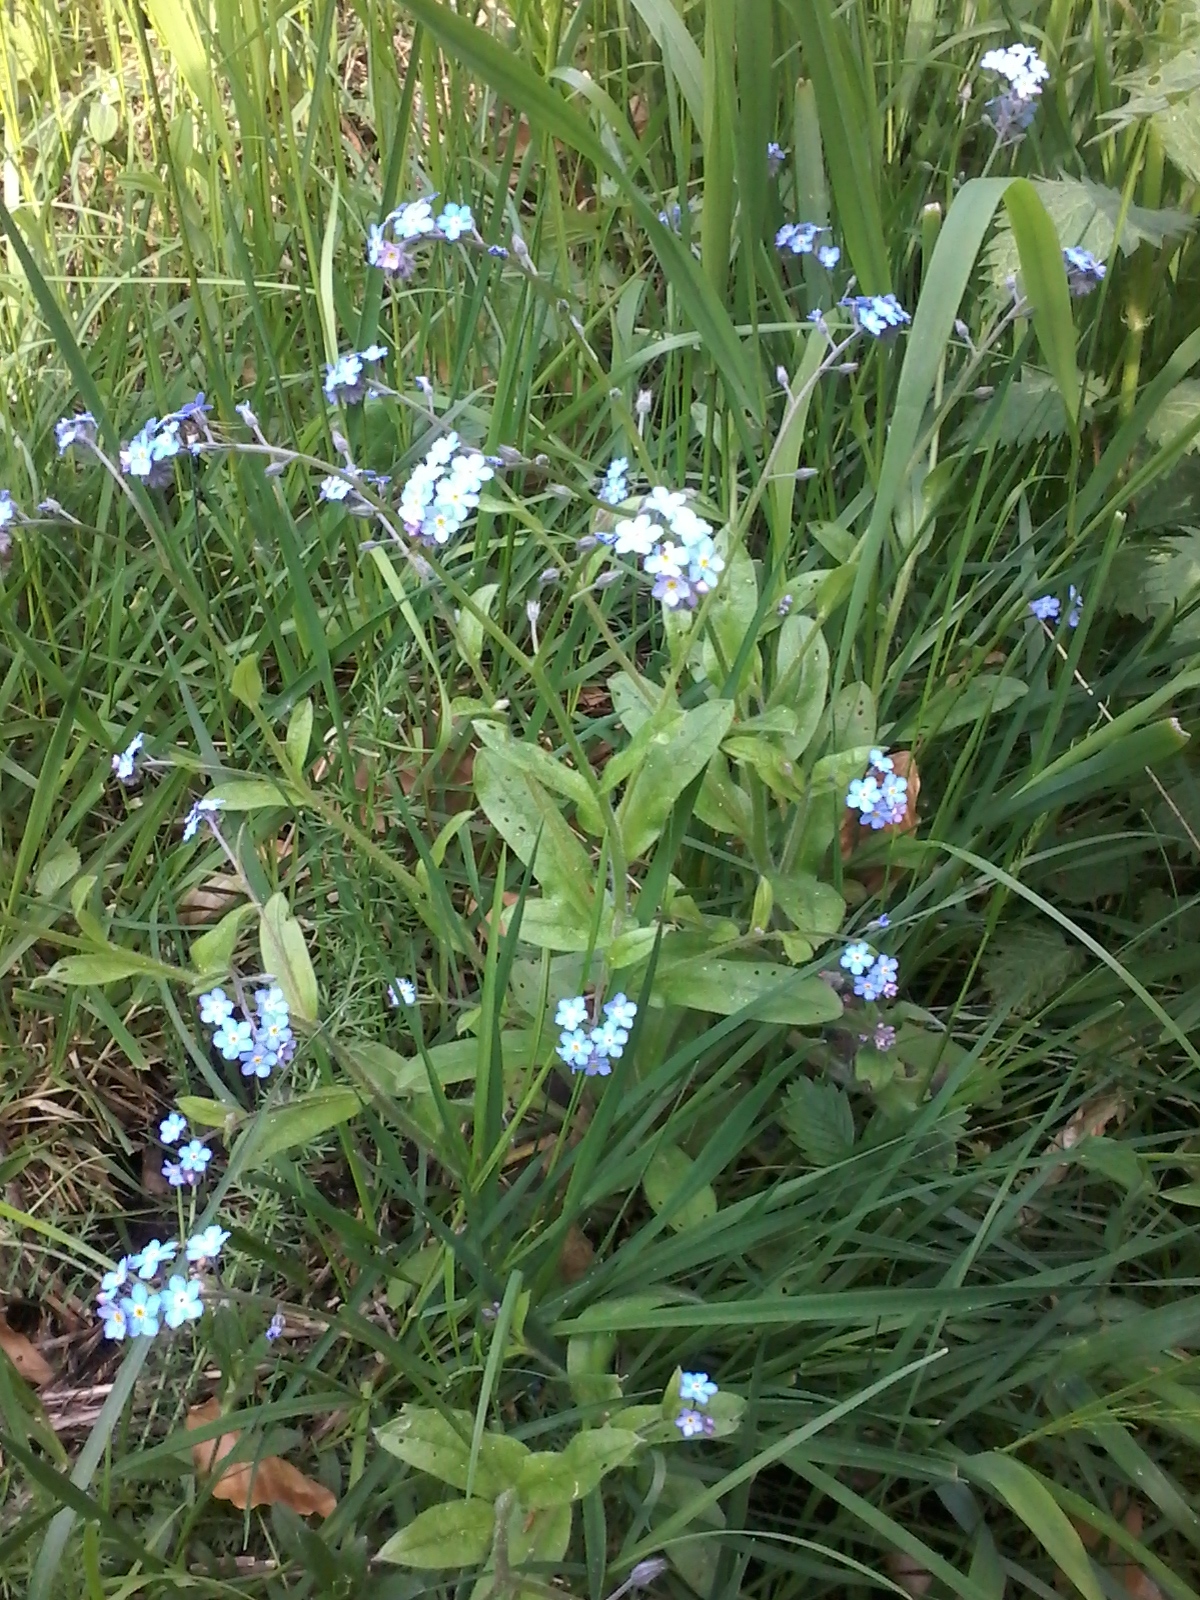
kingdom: Plantae
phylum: Tracheophyta
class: Magnoliopsida
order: Boraginales
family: Boraginaceae
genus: Myosotis
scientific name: Myosotis sylvatica
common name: Wood forget-me-not
